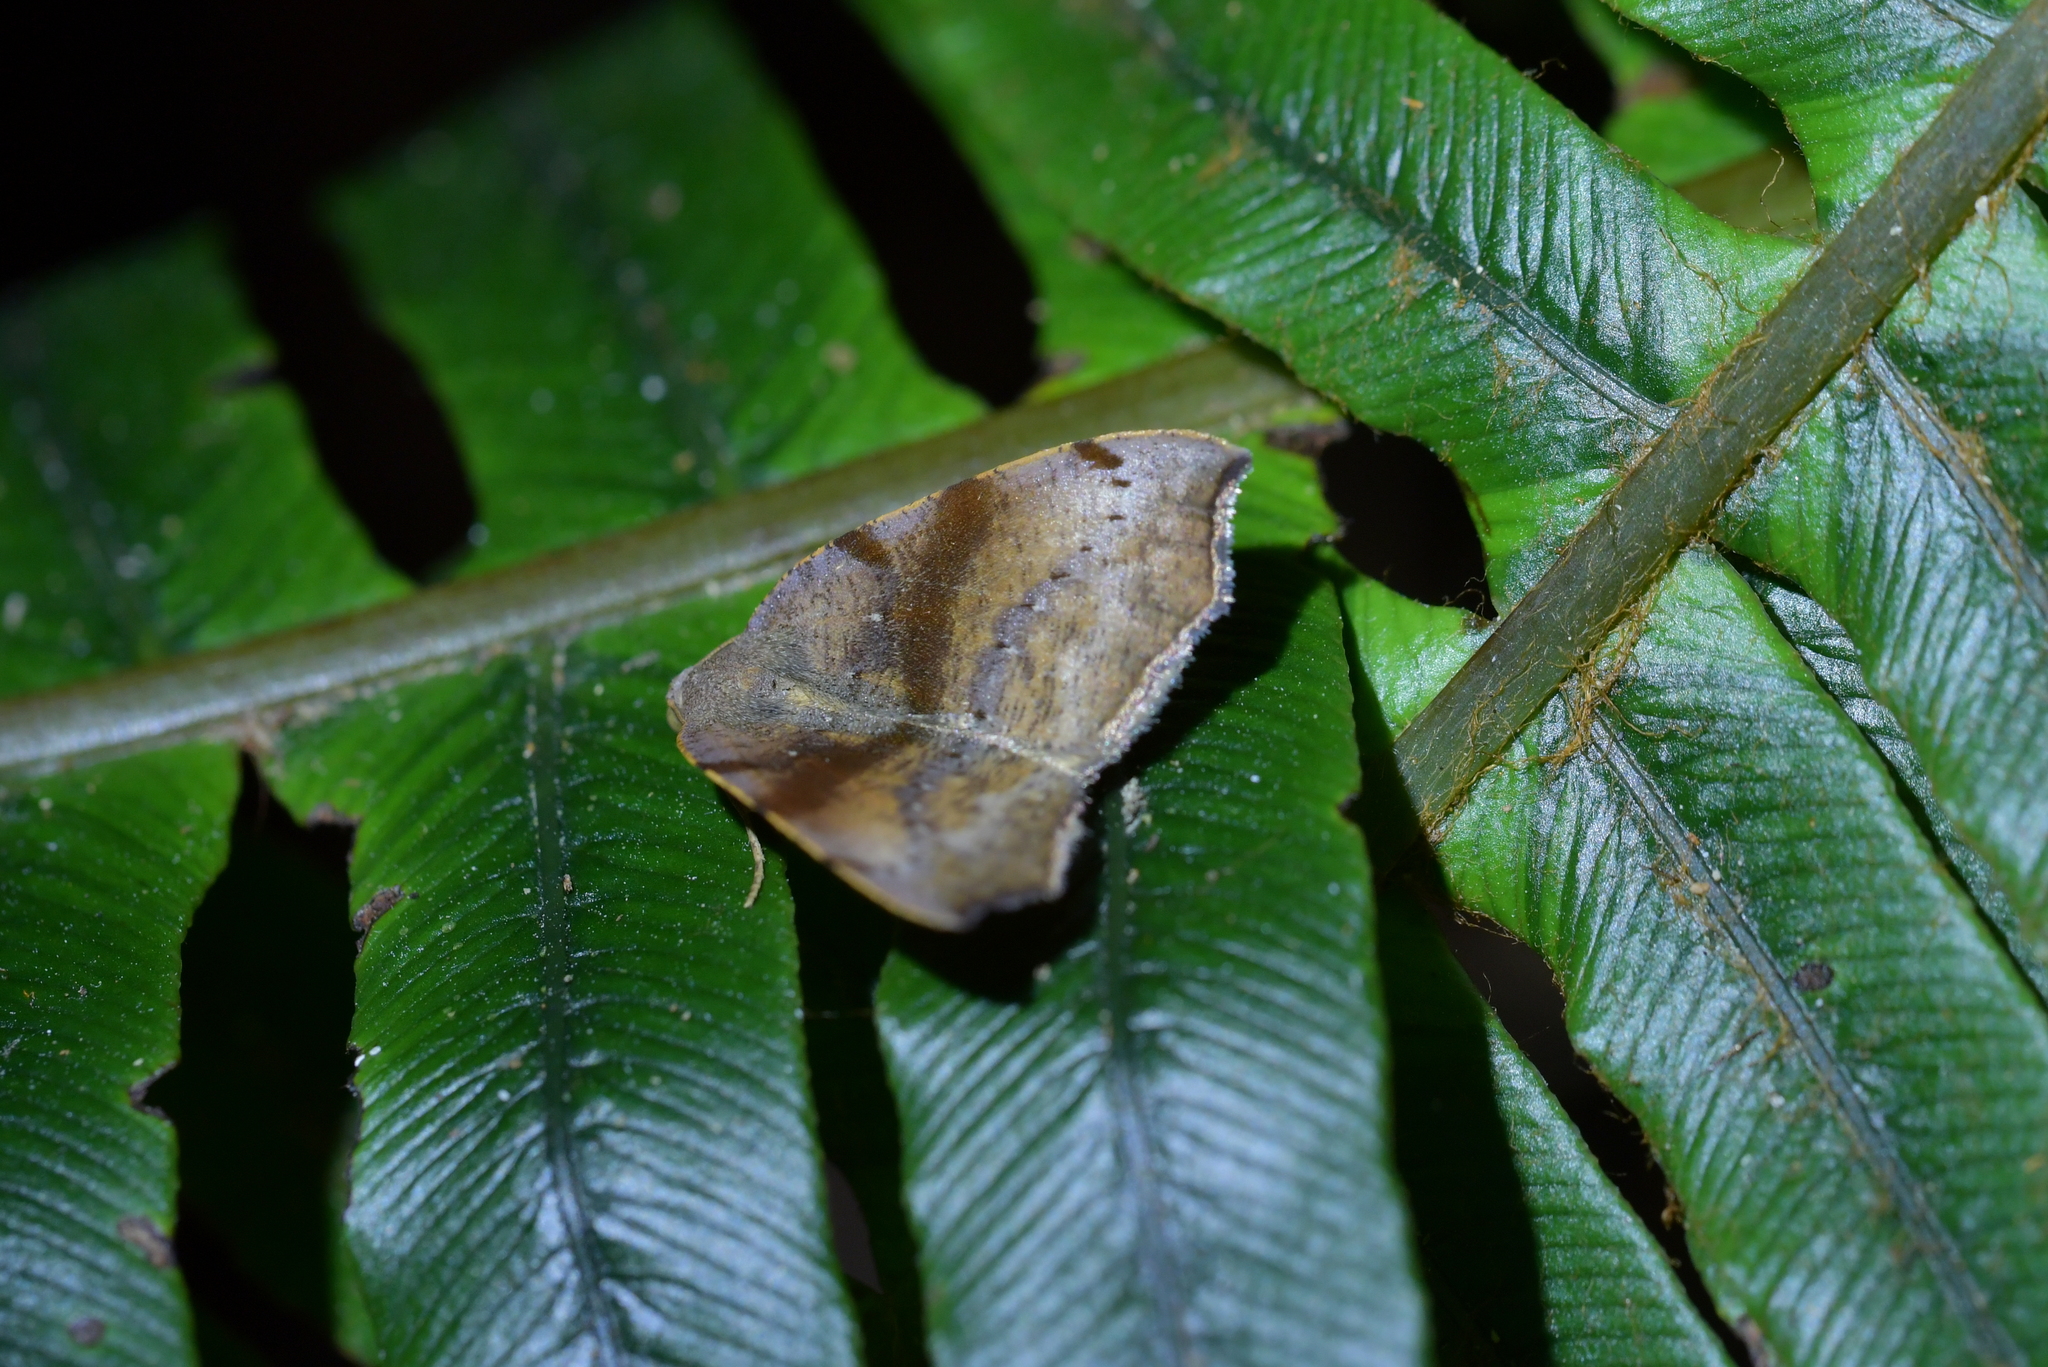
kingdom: Animalia
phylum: Arthropoda
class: Insecta
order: Lepidoptera
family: Geometridae
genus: Sestra
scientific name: Sestra flexata
